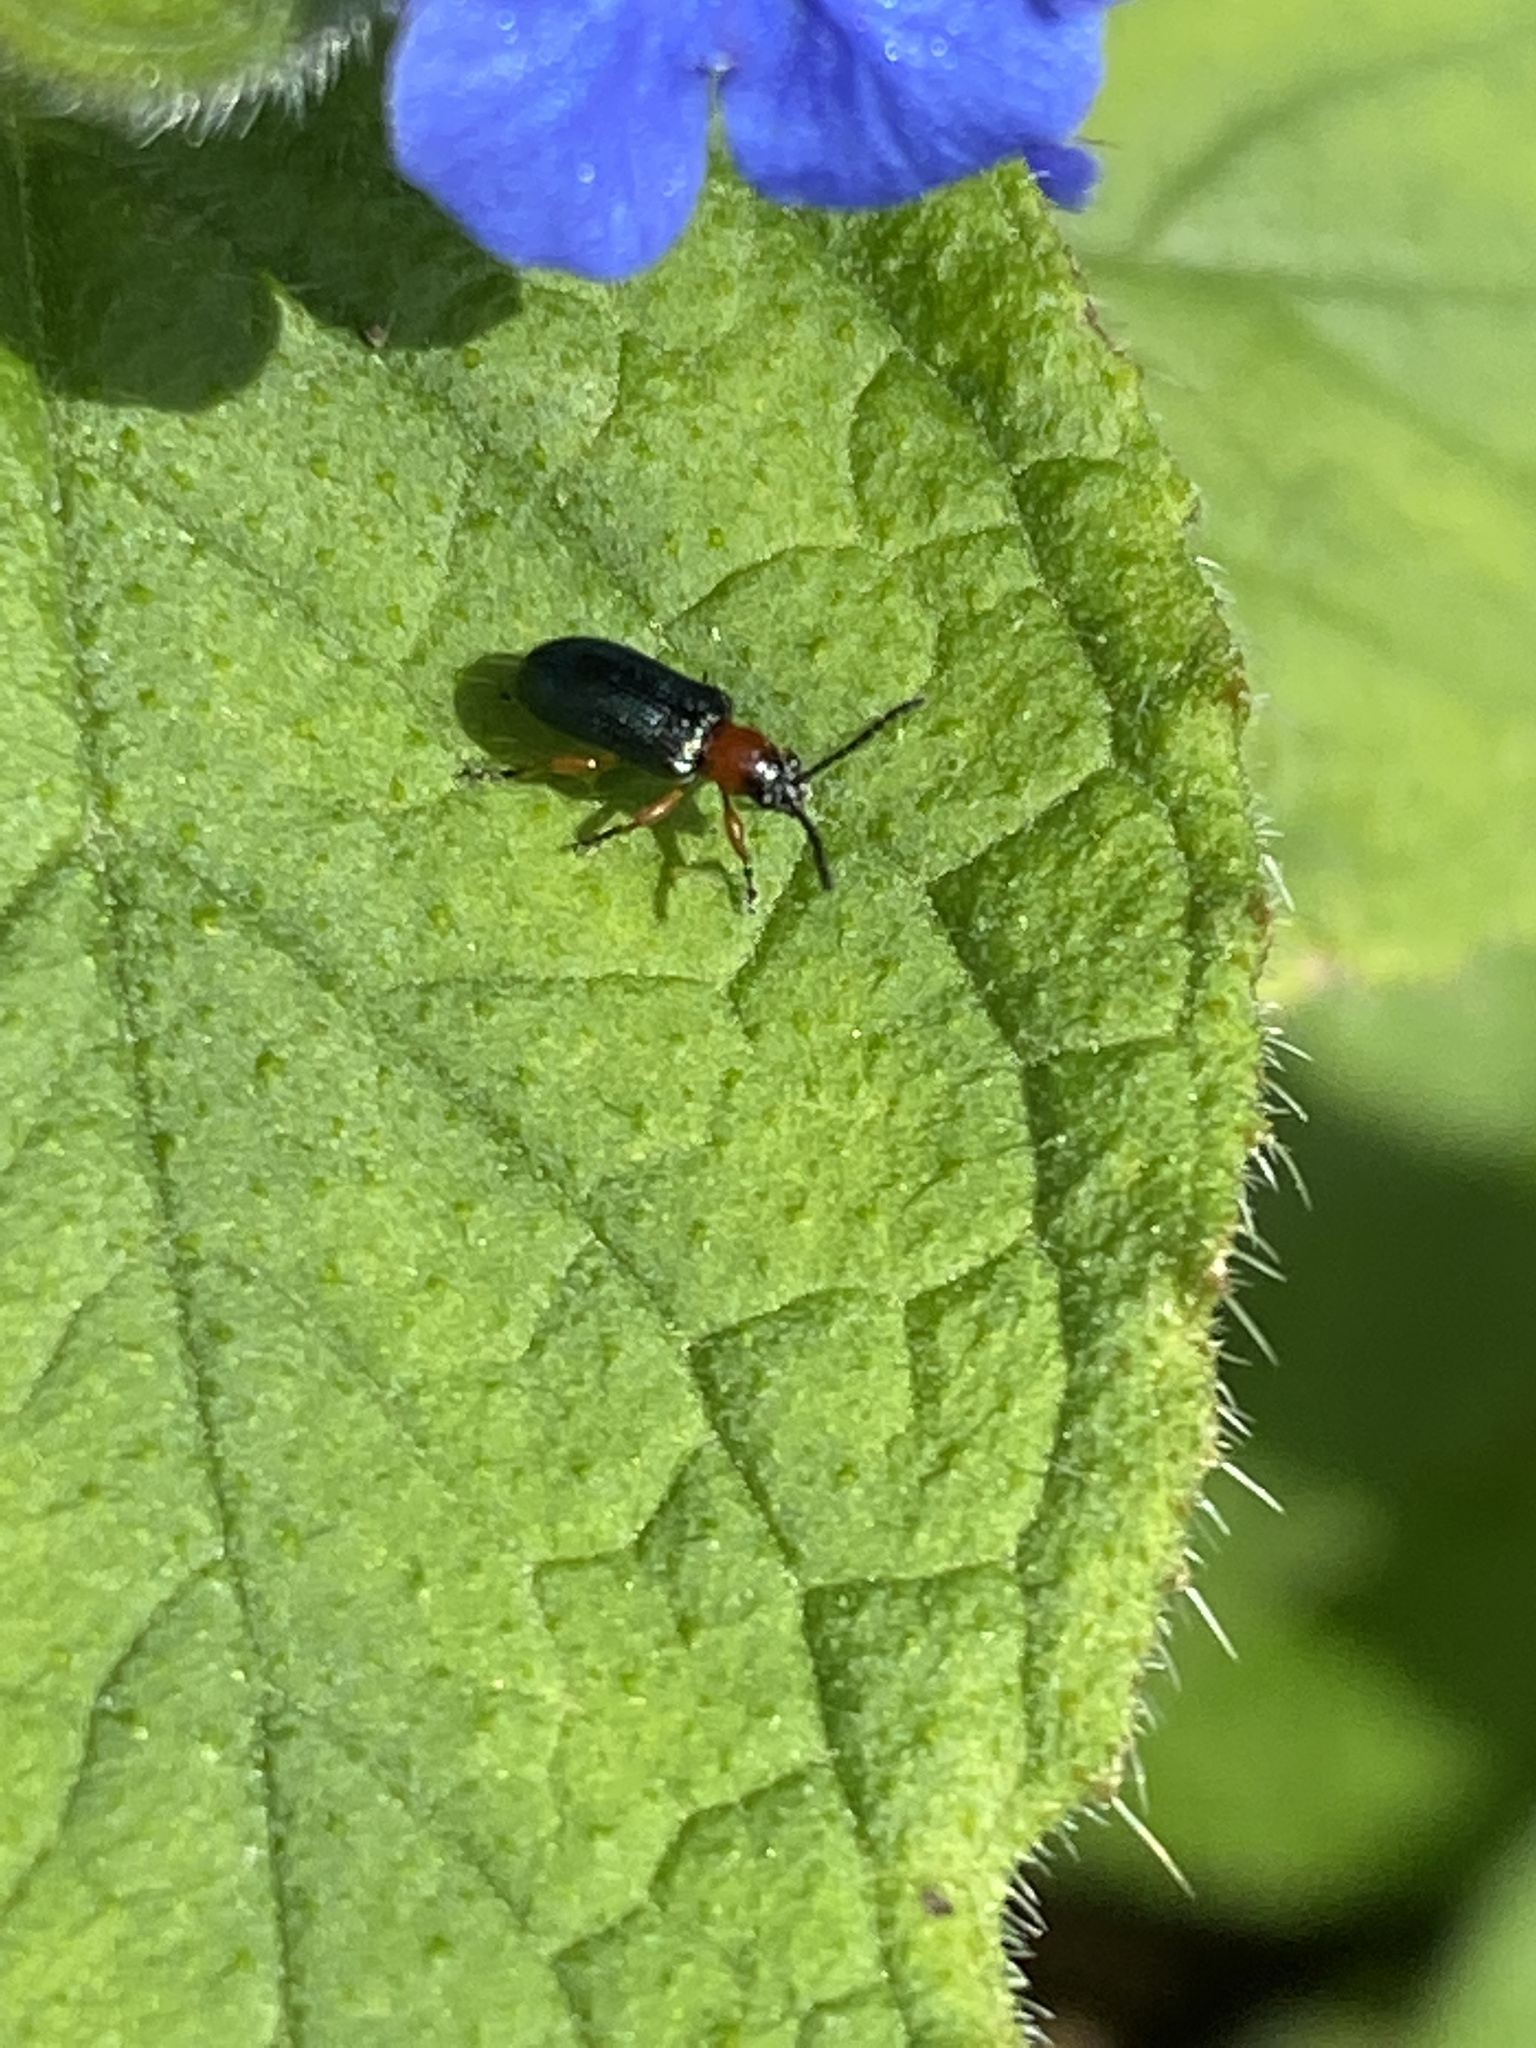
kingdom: Animalia
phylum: Arthropoda
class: Insecta
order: Coleoptera
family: Chrysomelidae
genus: Oulema
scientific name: Oulema
